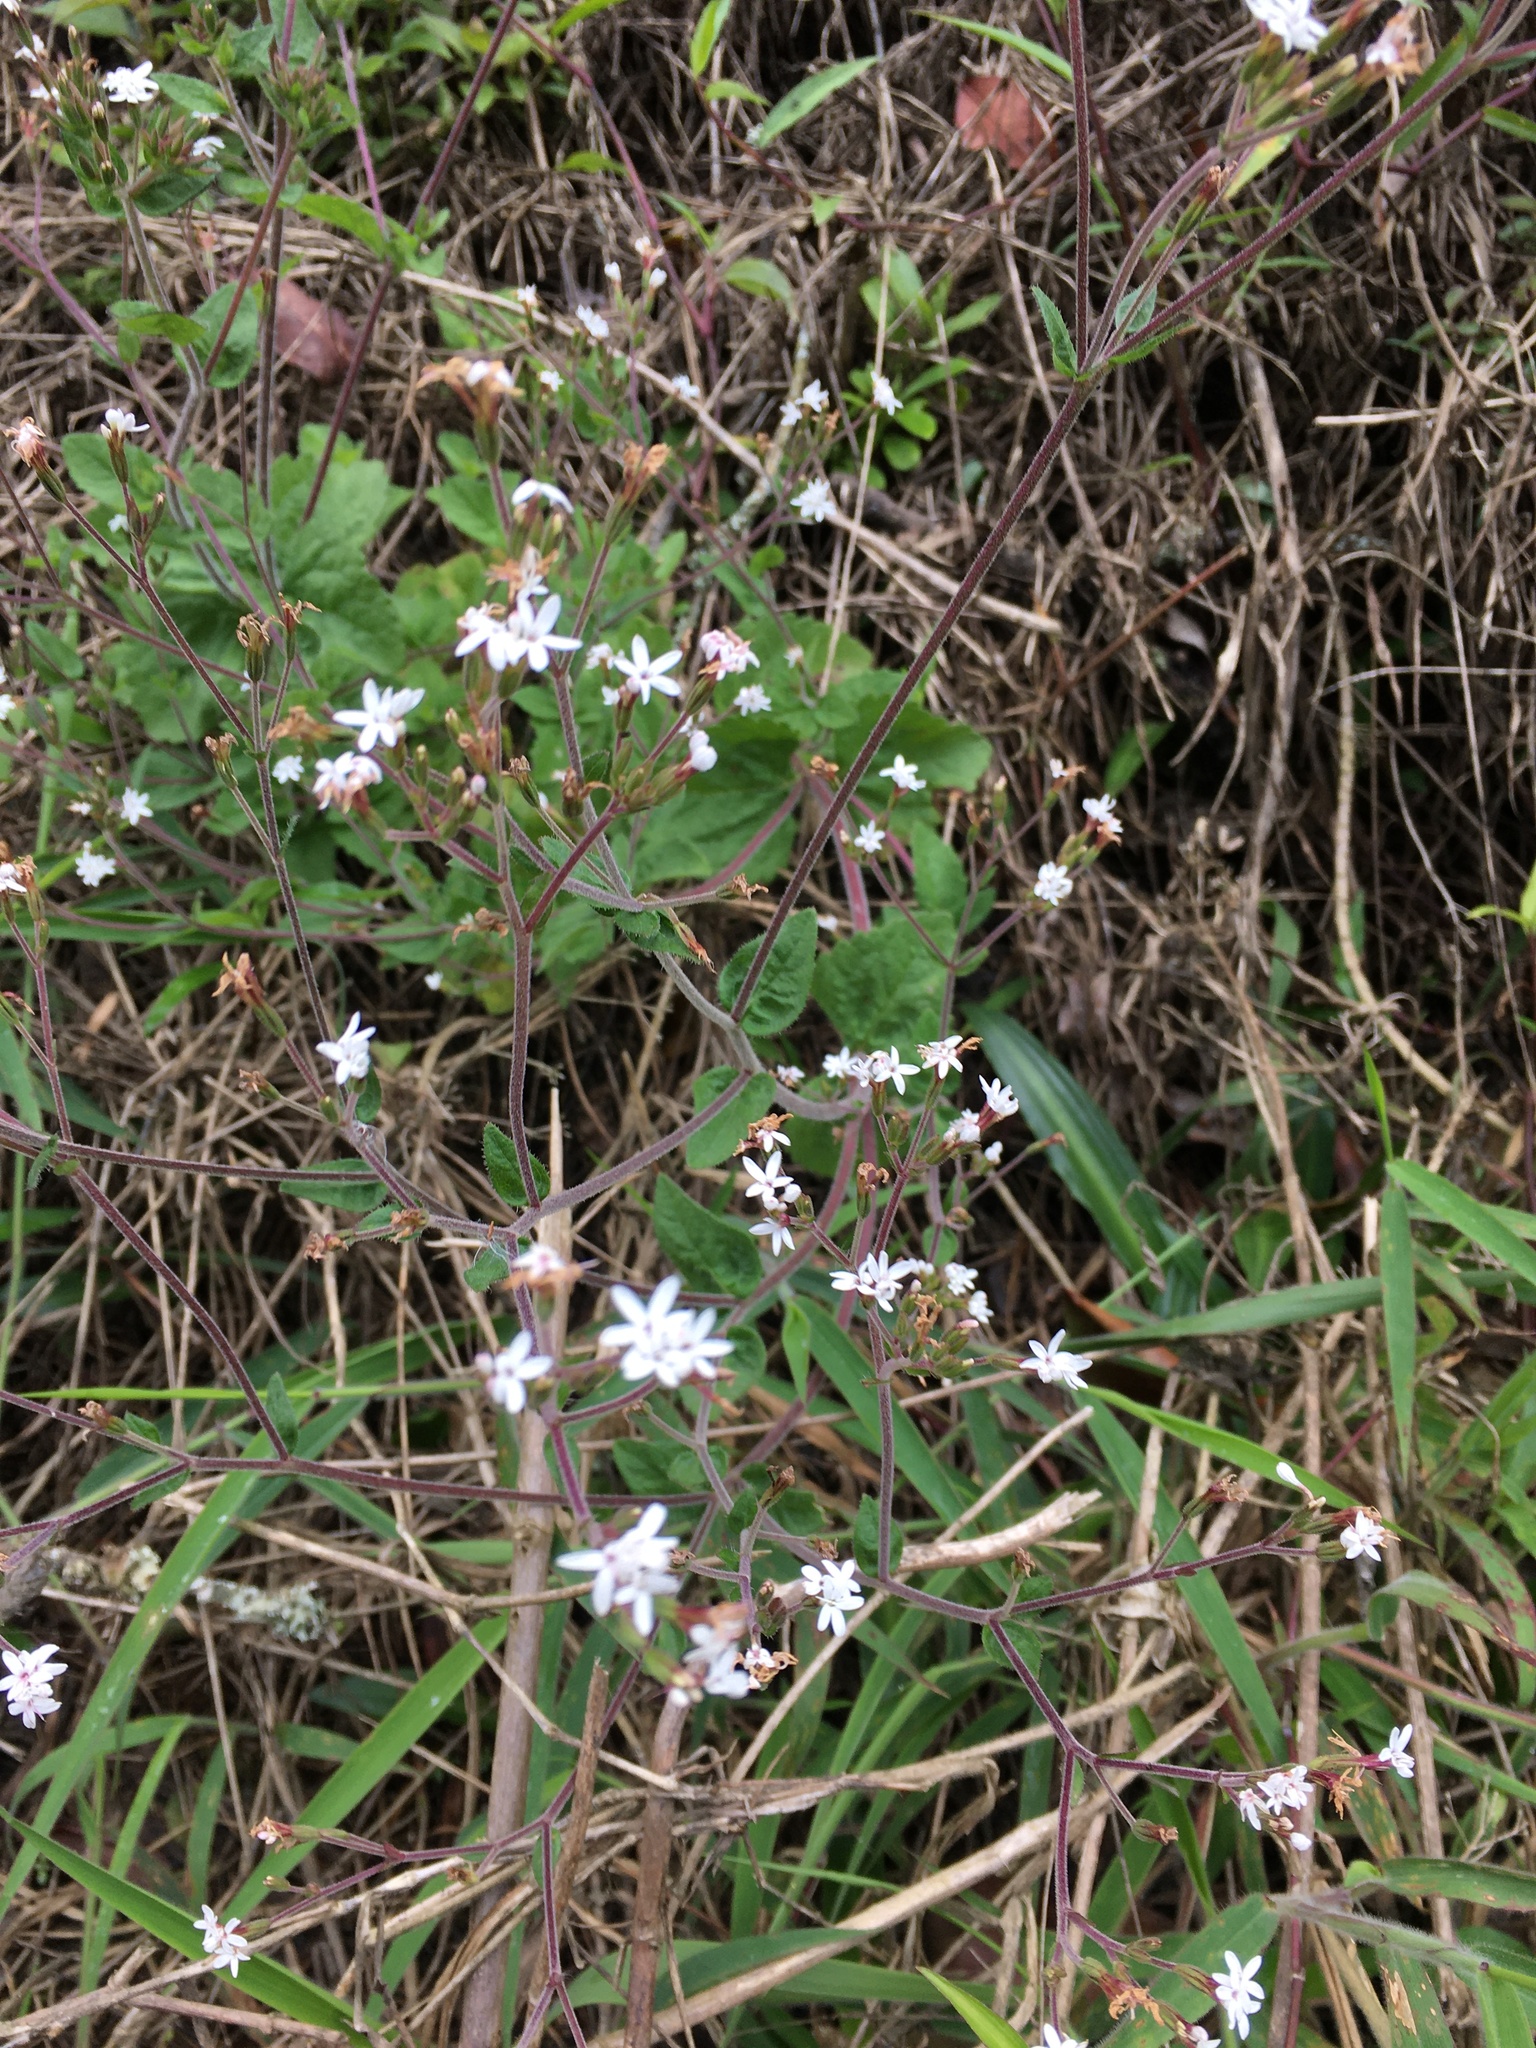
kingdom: Plantae
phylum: Tracheophyta
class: Magnoliopsida
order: Asterales
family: Asteraceae
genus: Stevia
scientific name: Stevia elatior
